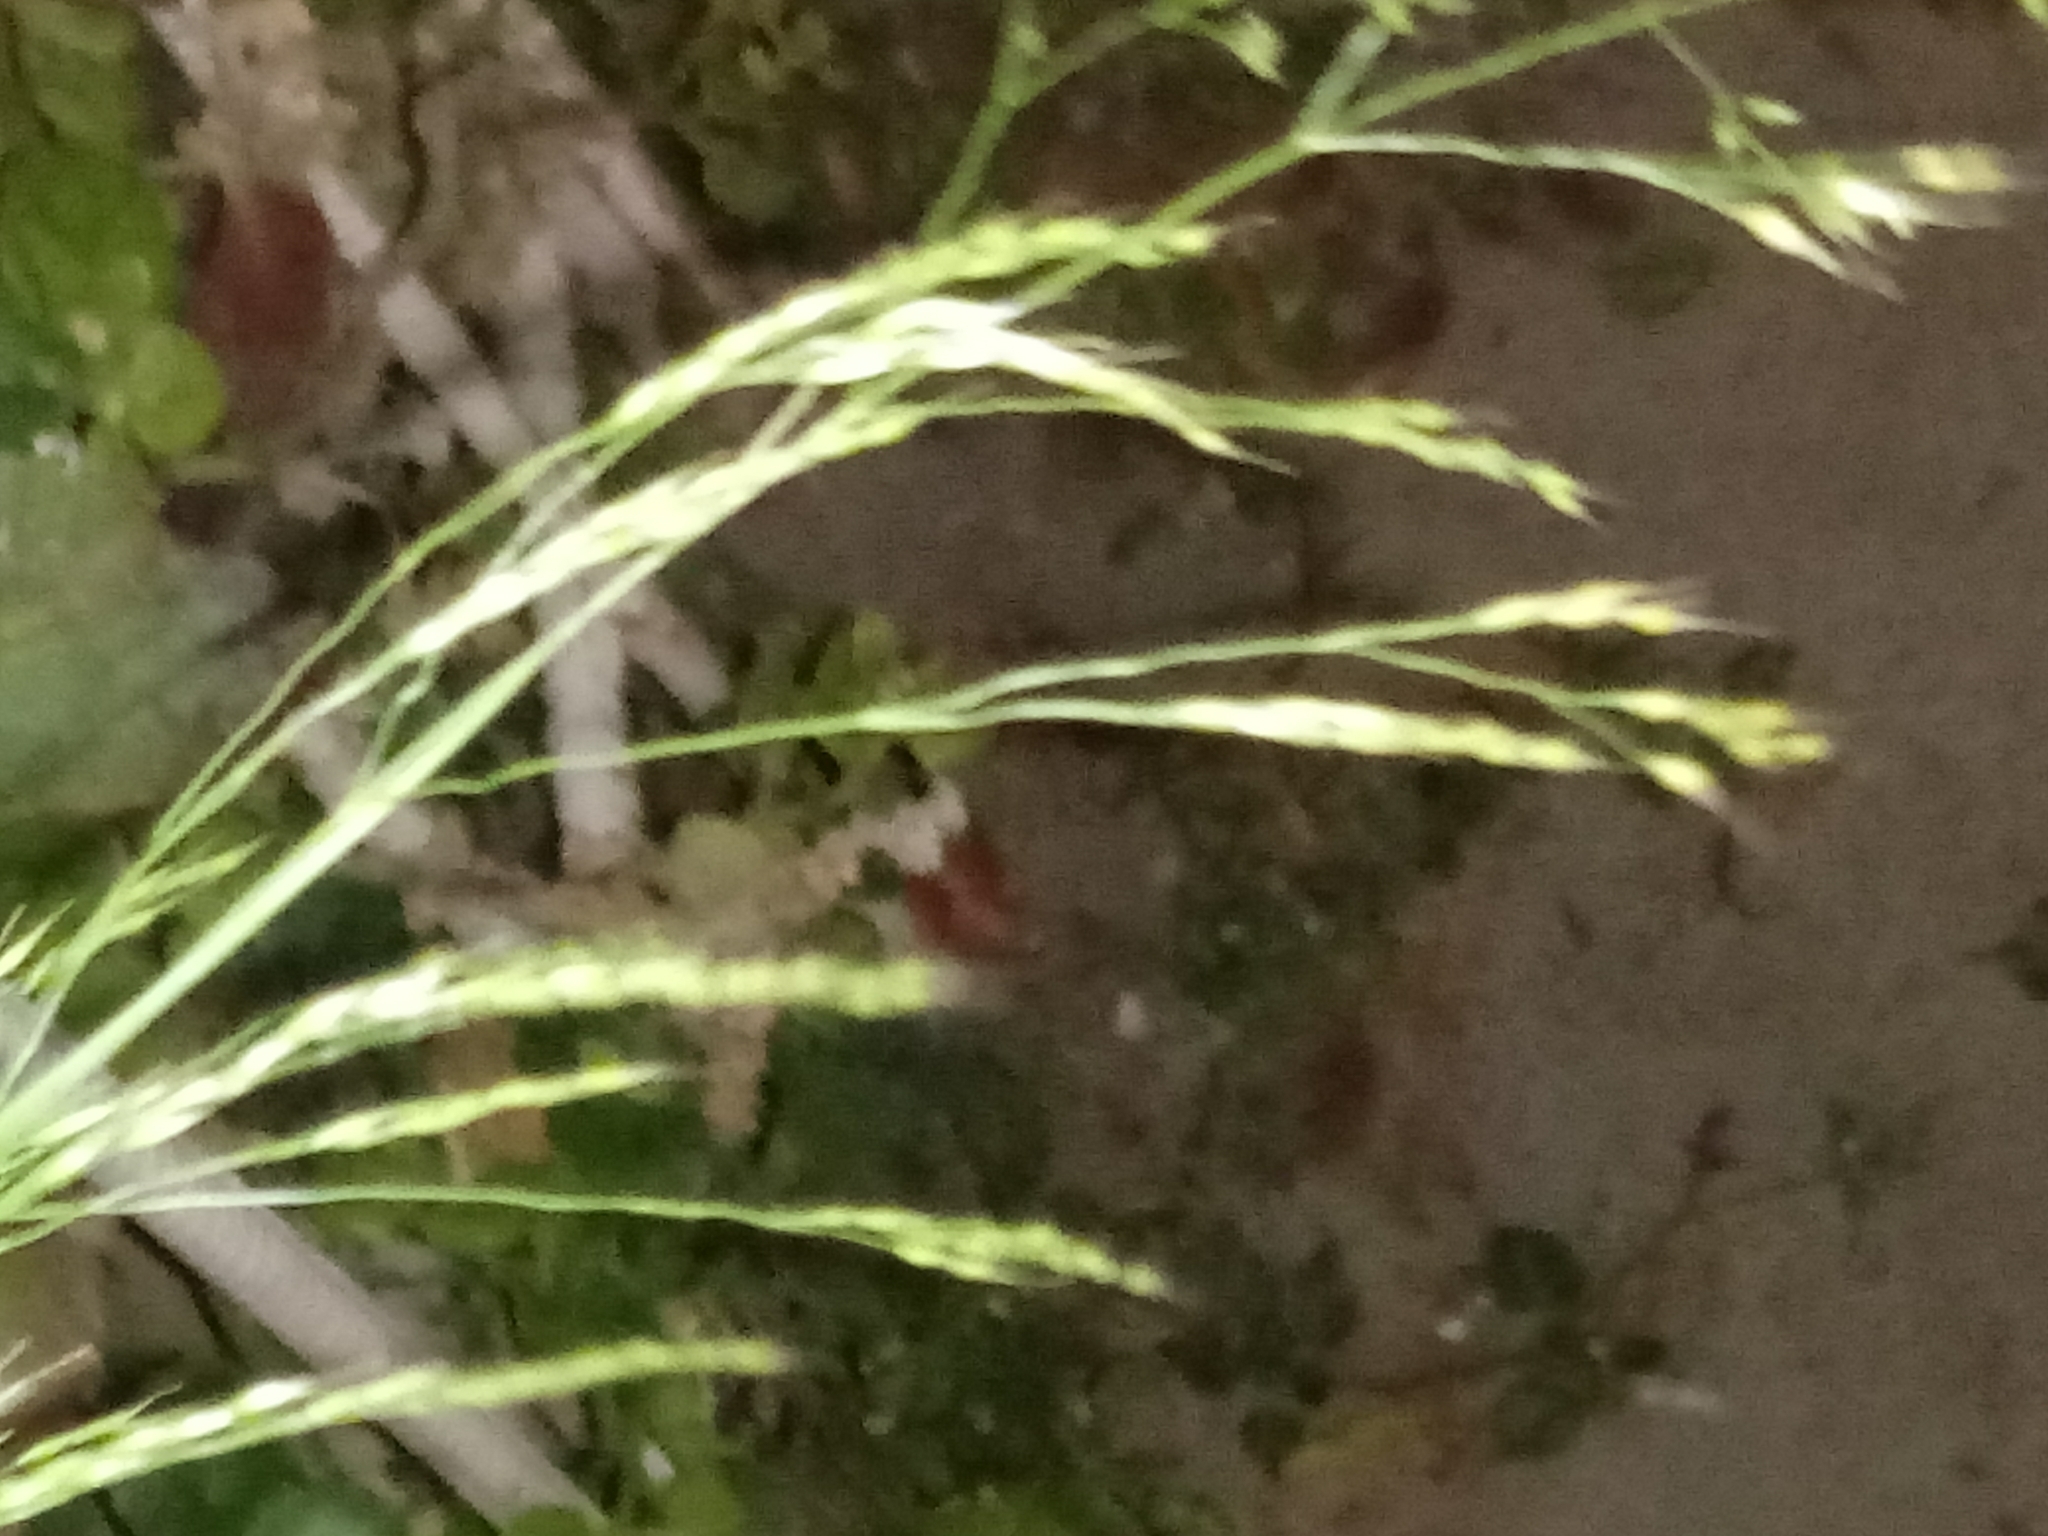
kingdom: Plantae
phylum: Tracheophyta
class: Liliopsida
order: Poales
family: Poaceae
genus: Oloptum
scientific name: Oloptum miliaceum
